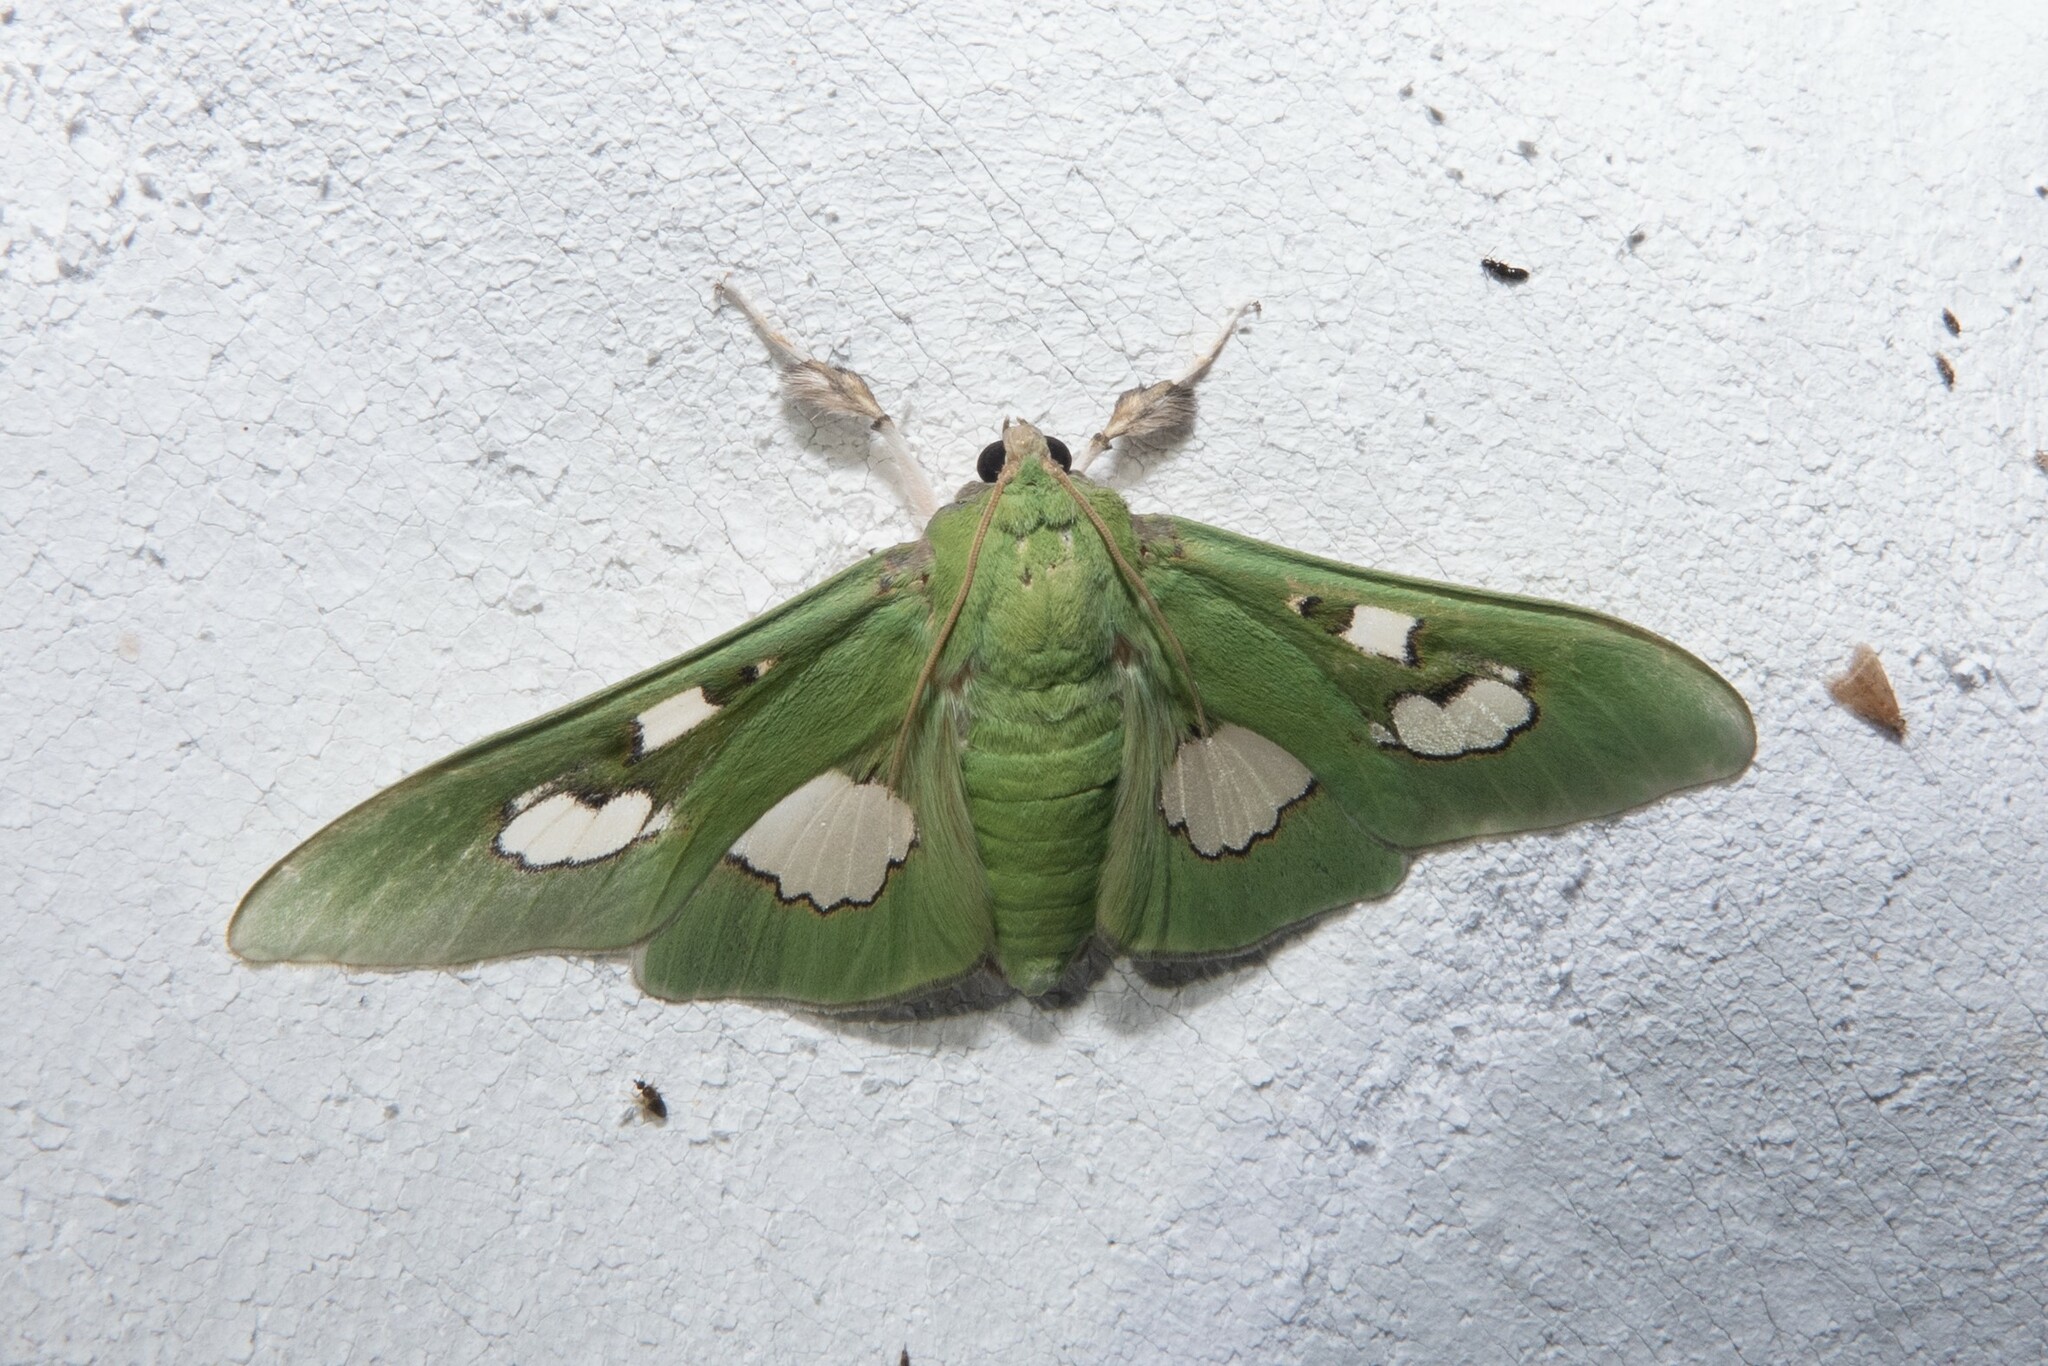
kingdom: Animalia
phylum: Arthropoda
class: Insecta
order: Lepidoptera
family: Crambidae
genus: Siga
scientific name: Siga liris
